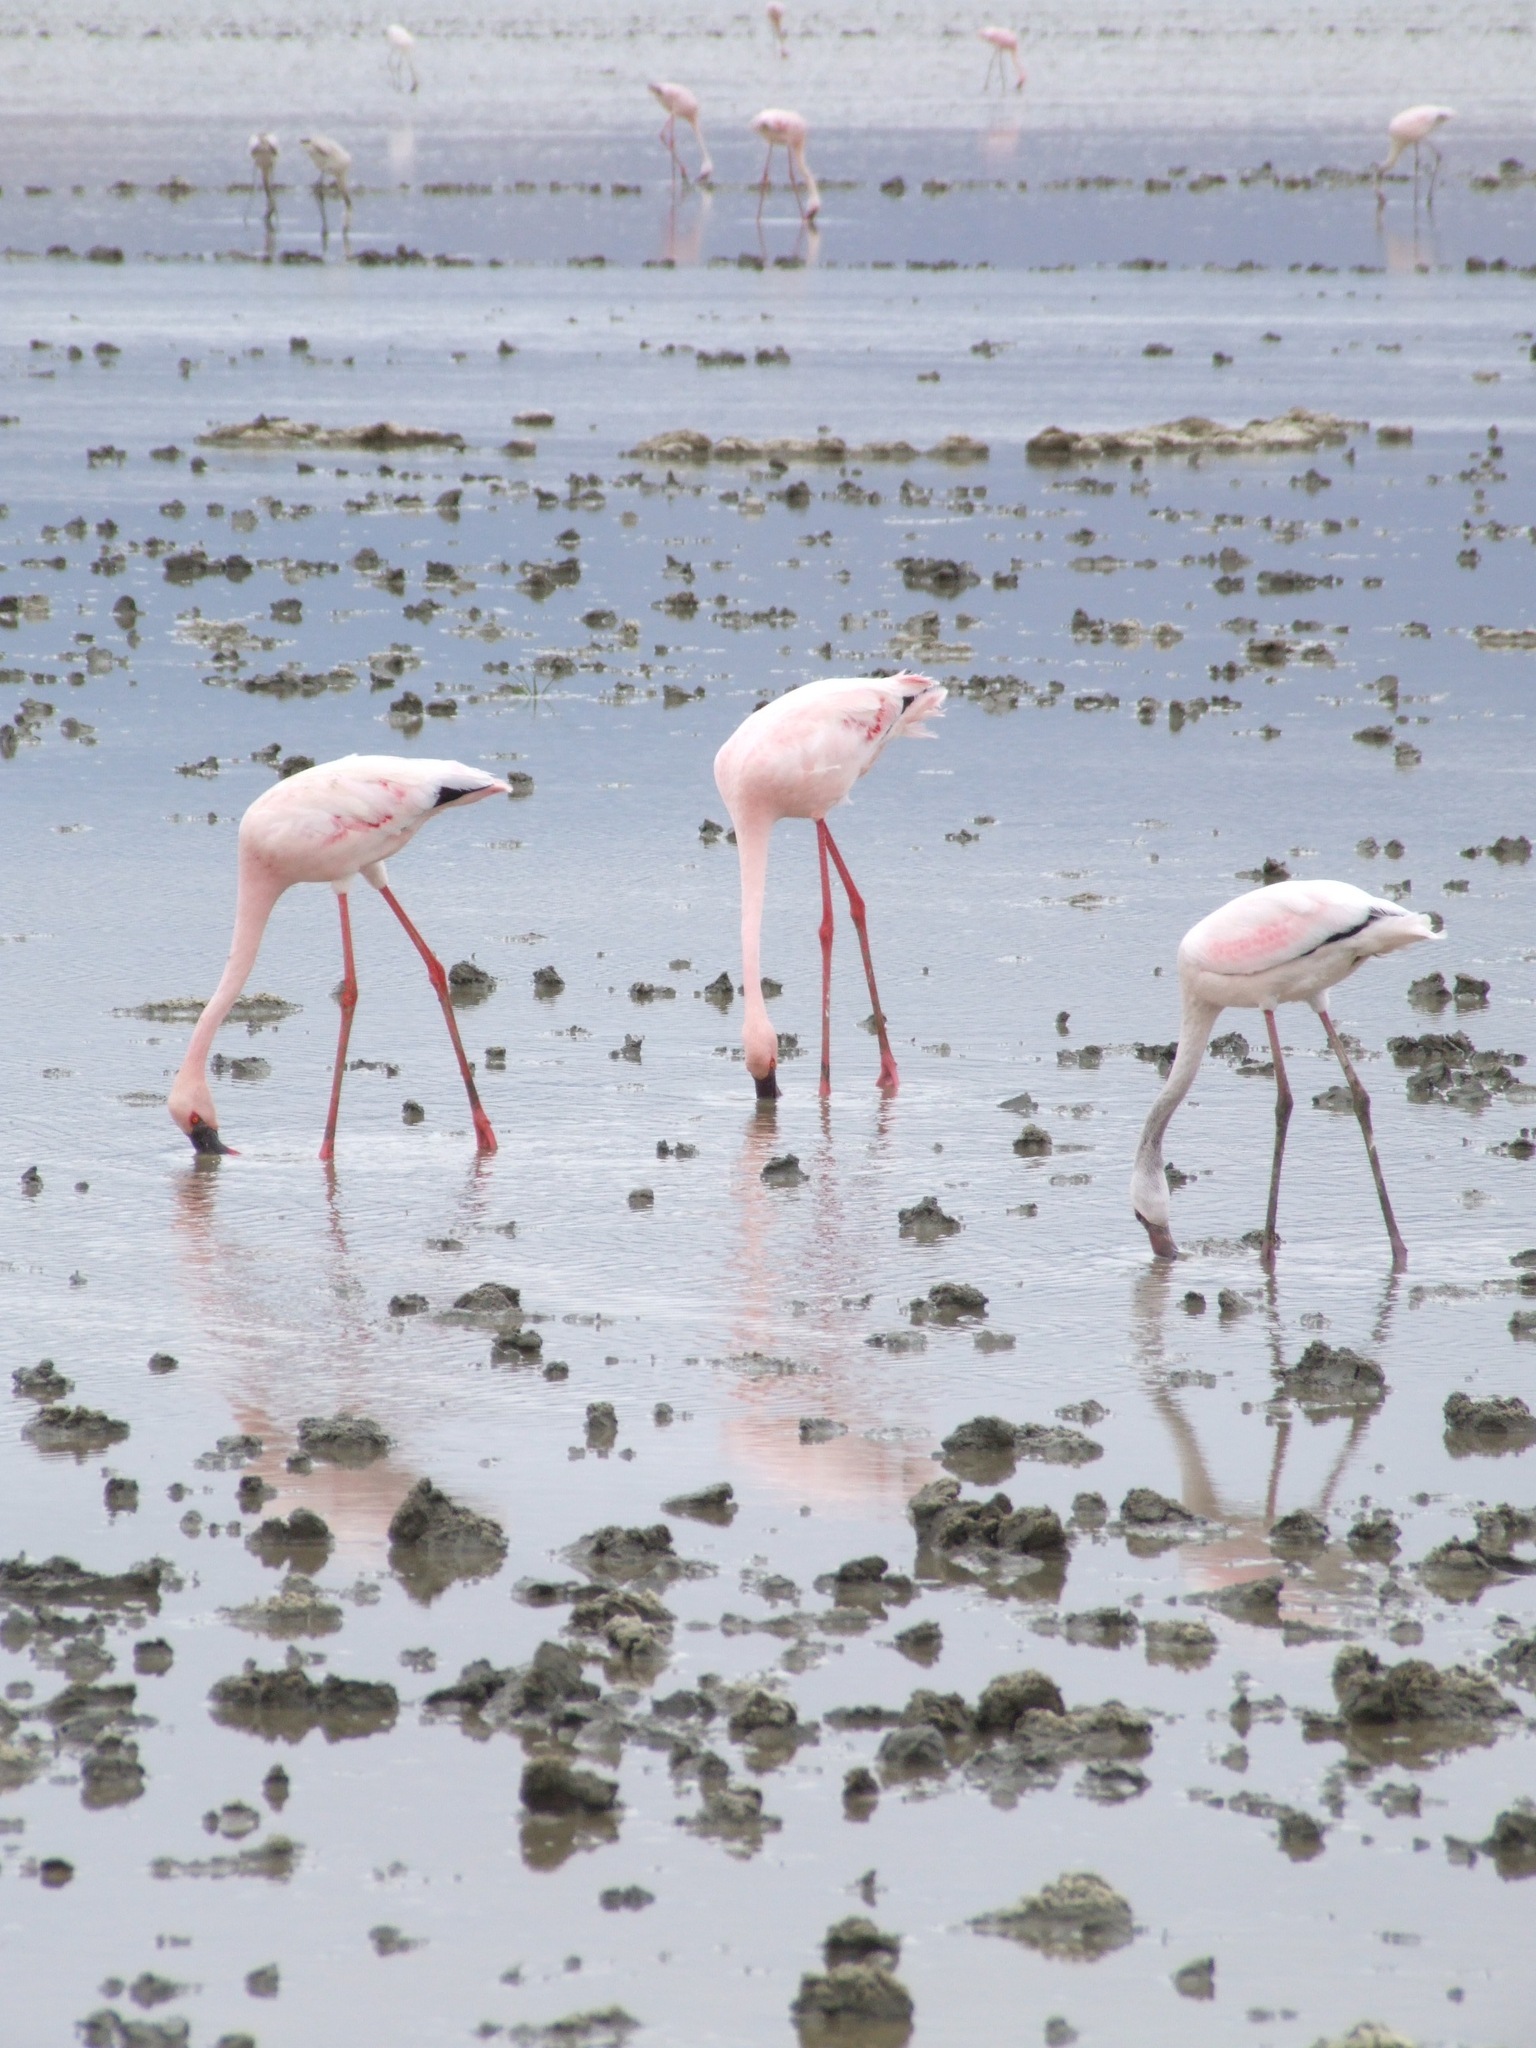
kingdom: Animalia
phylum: Chordata
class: Aves
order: Phoenicopteriformes
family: Phoenicopteridae
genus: Phoeniconaias
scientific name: Phoeniconaias minor
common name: Lesser flamingo
